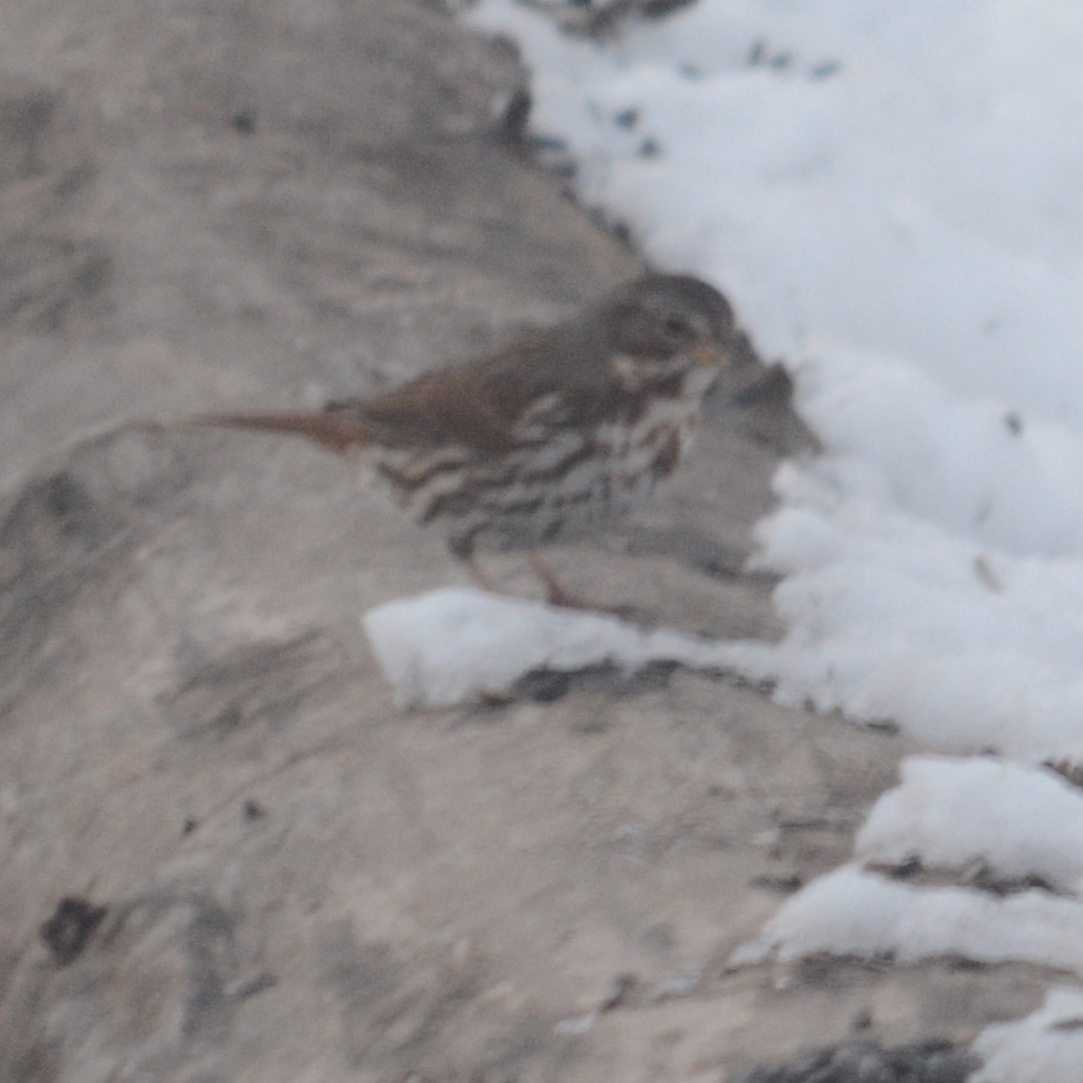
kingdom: Animalia
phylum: Chordata
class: Aves
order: Passeriformes
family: Passerellidae
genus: Passerella
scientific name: Passerella iliaca
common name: Fox sparrow
